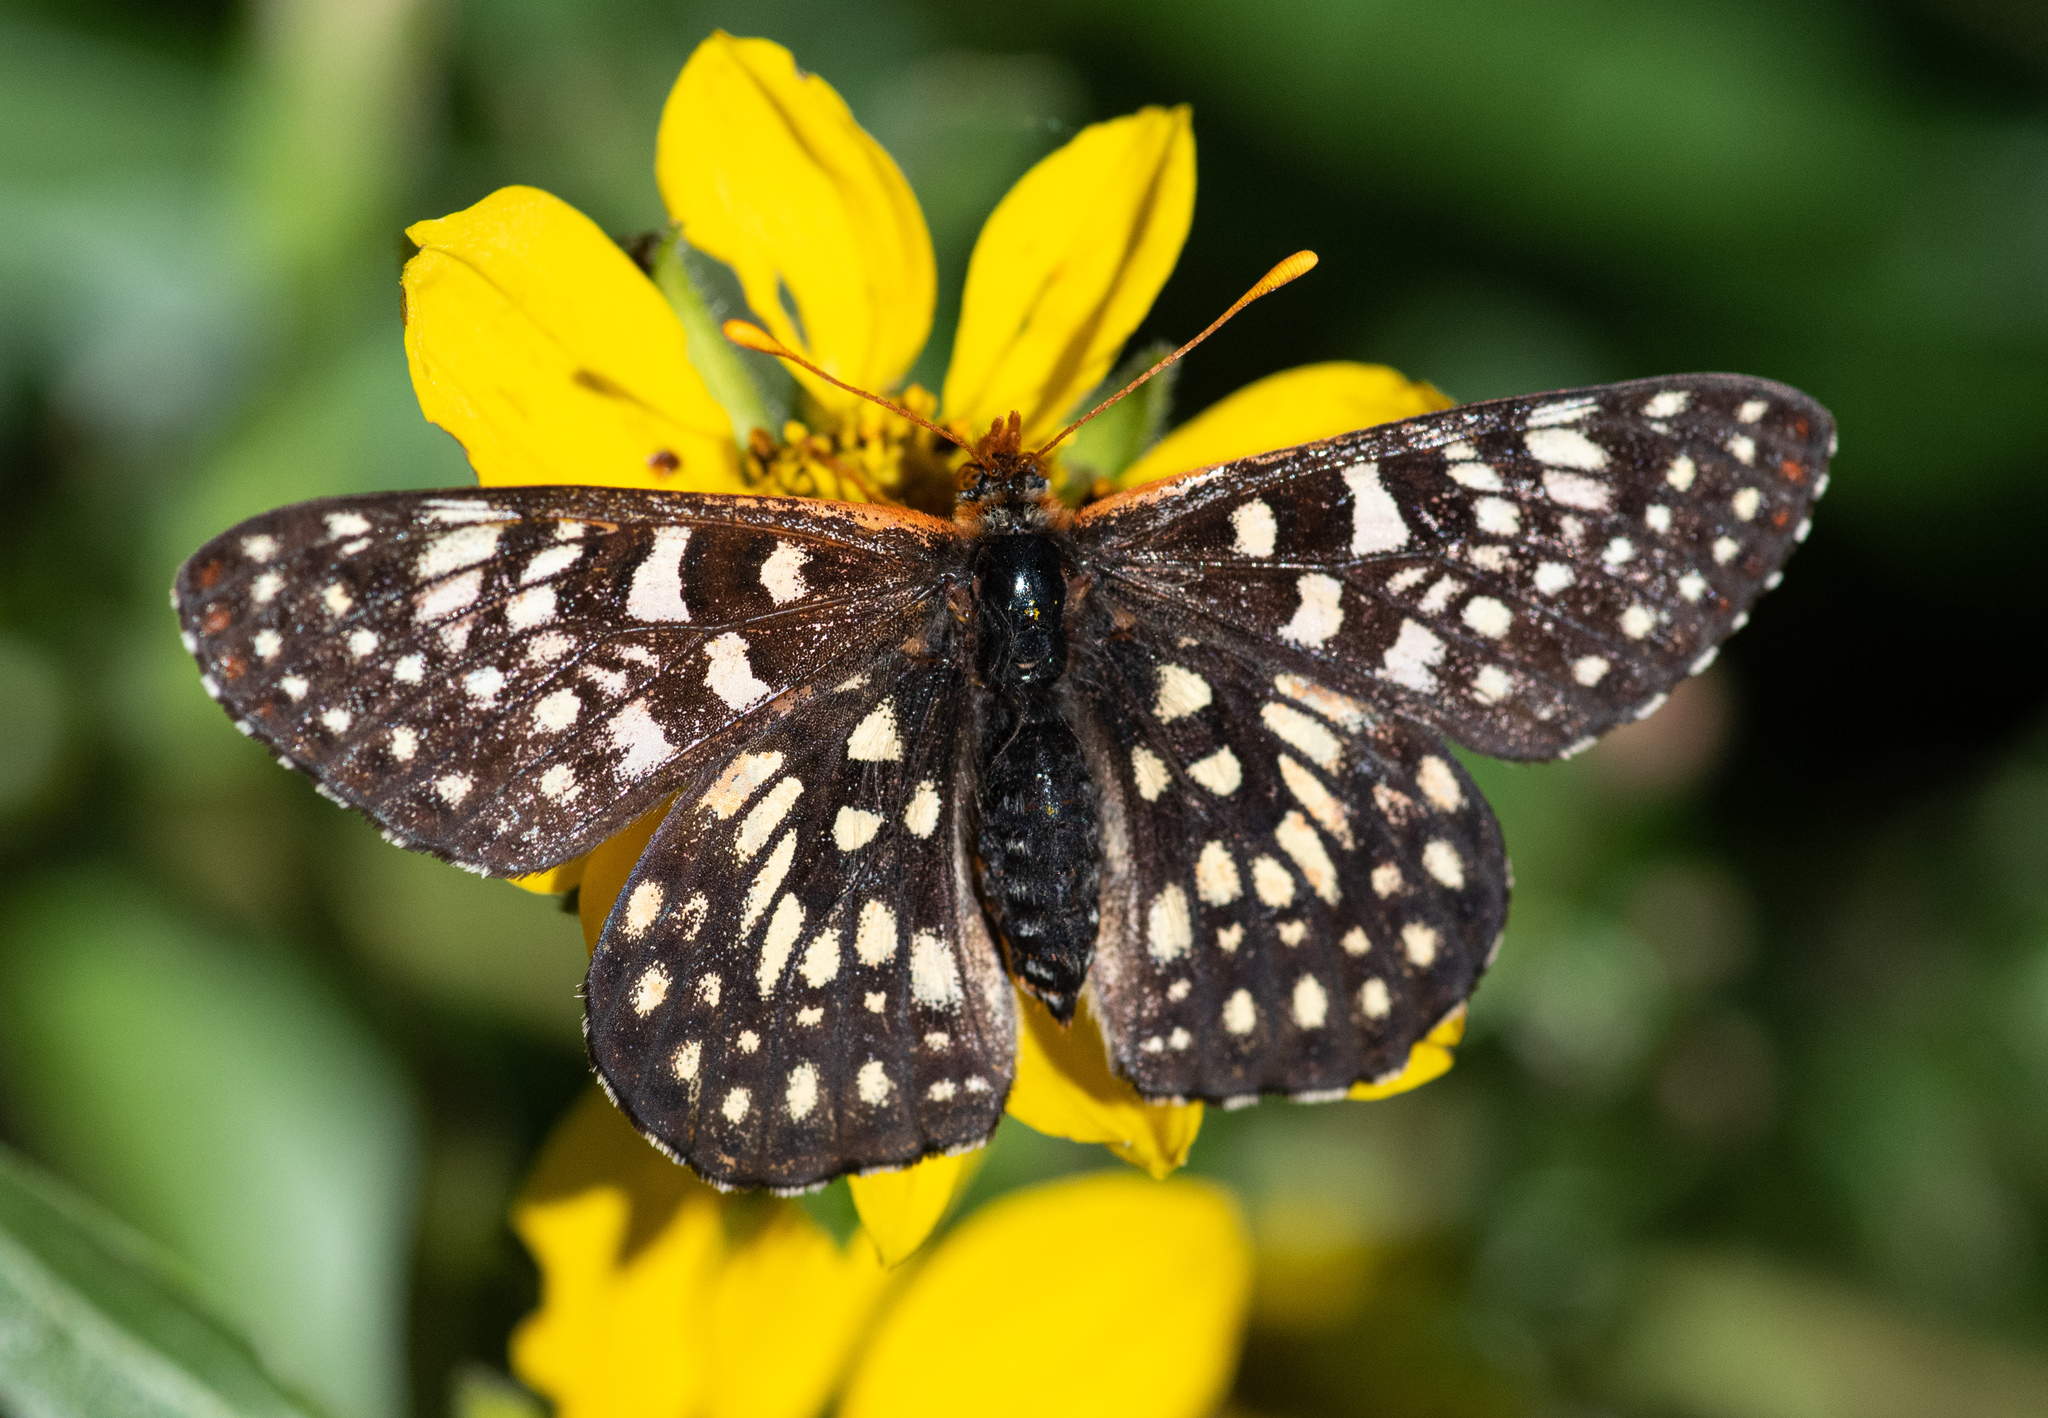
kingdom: Animalia
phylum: Arthropoda
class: Insecta
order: Lepidoptera
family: Nymphalidae
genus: Occidryas
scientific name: Occidryas chalcedona
